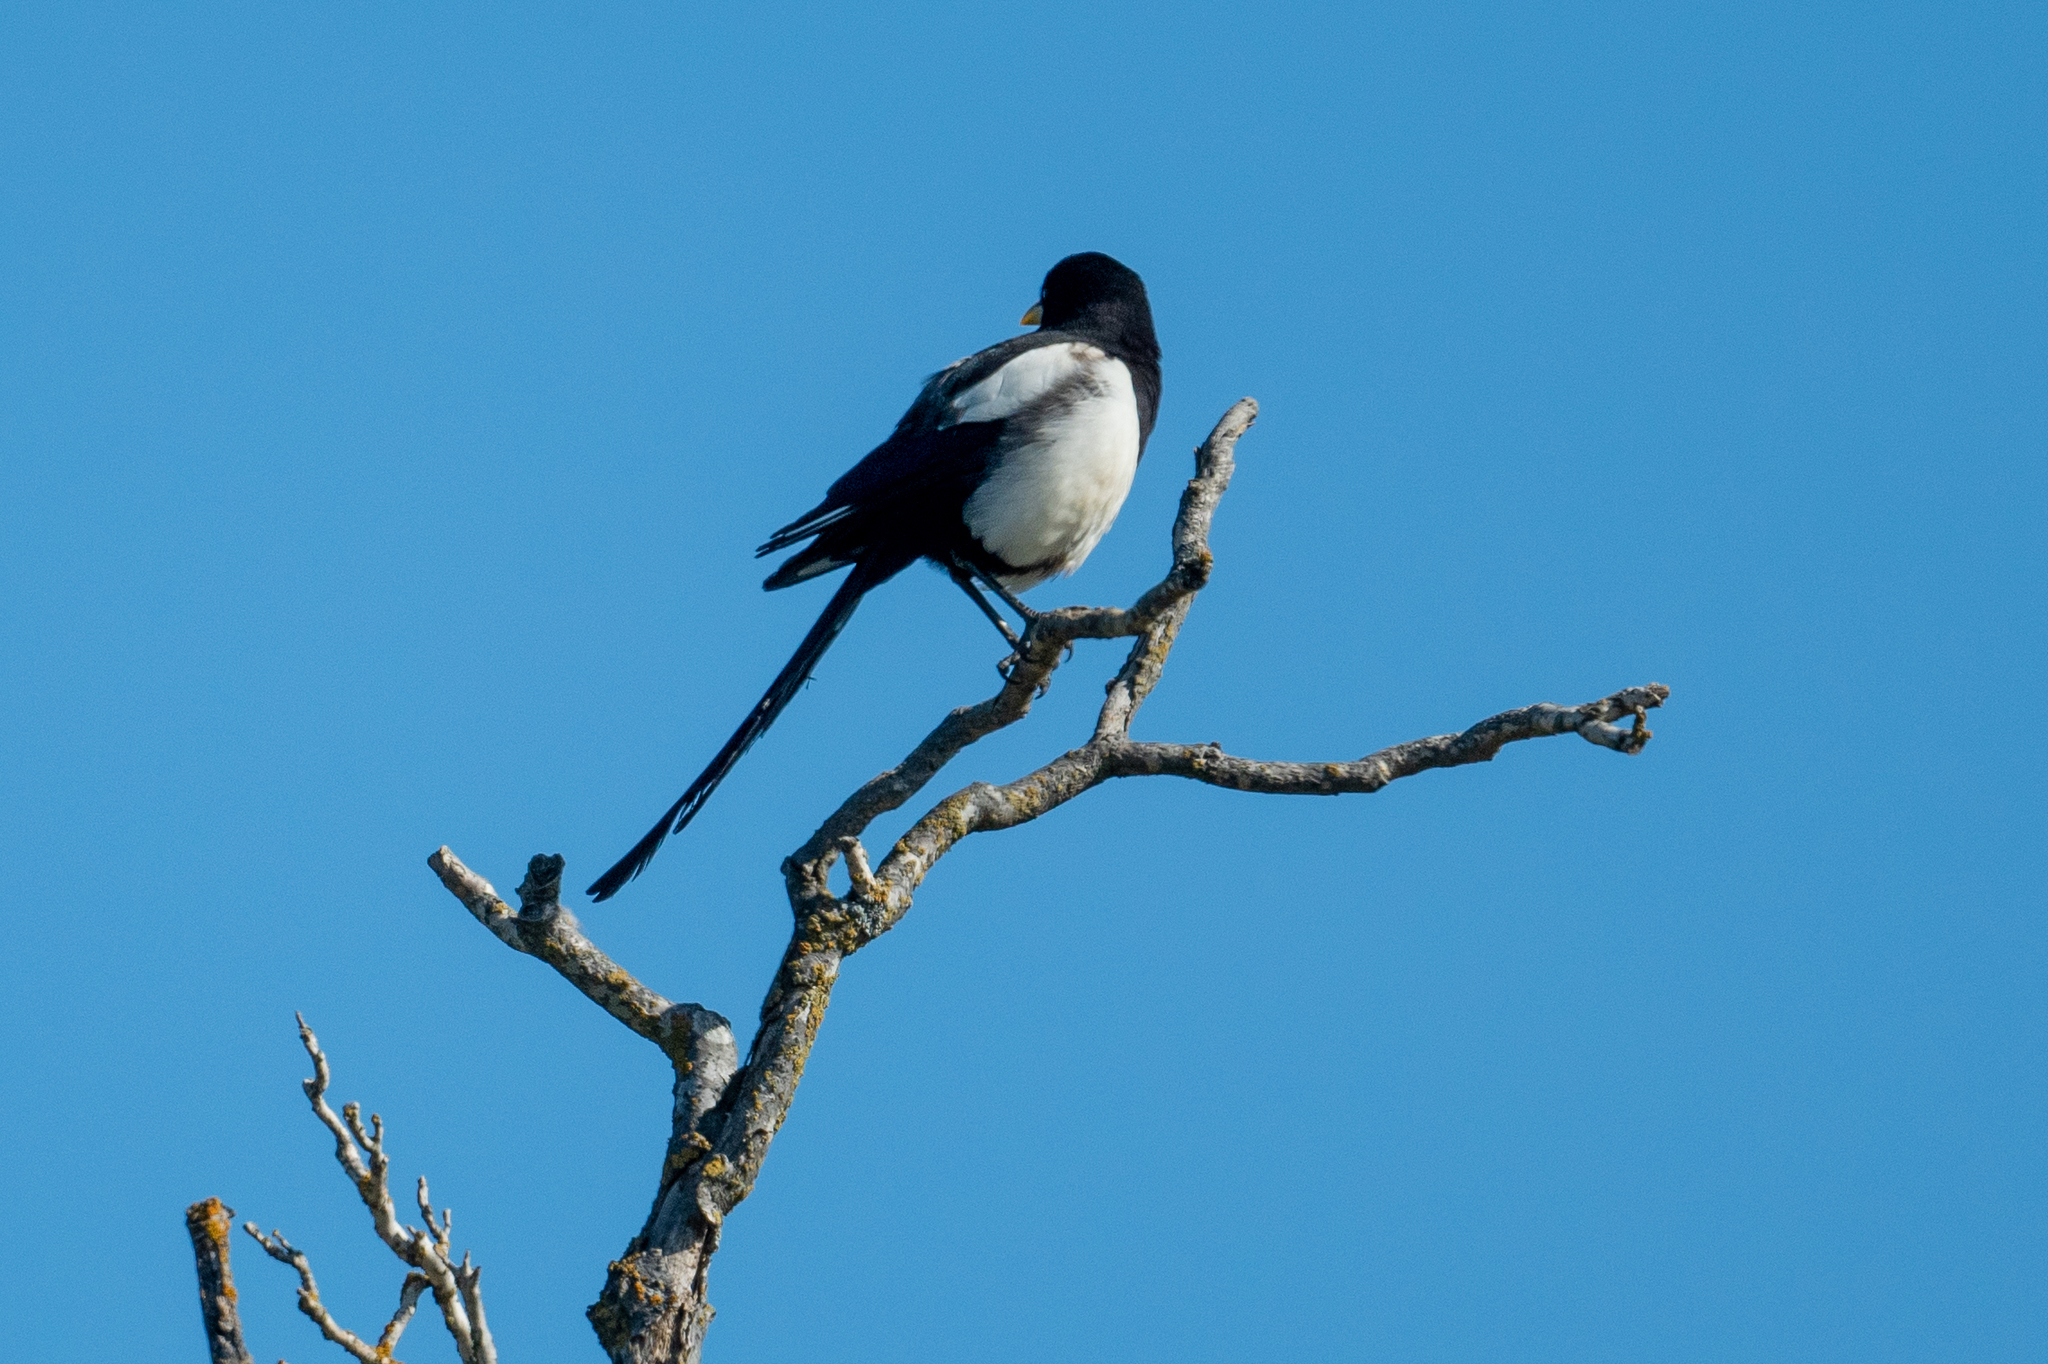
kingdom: Animalia
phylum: Chordata
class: Aves
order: Passeriformes
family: Corvidae
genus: Pica
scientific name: Pica nuttalli
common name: Yellow-billed magpie
